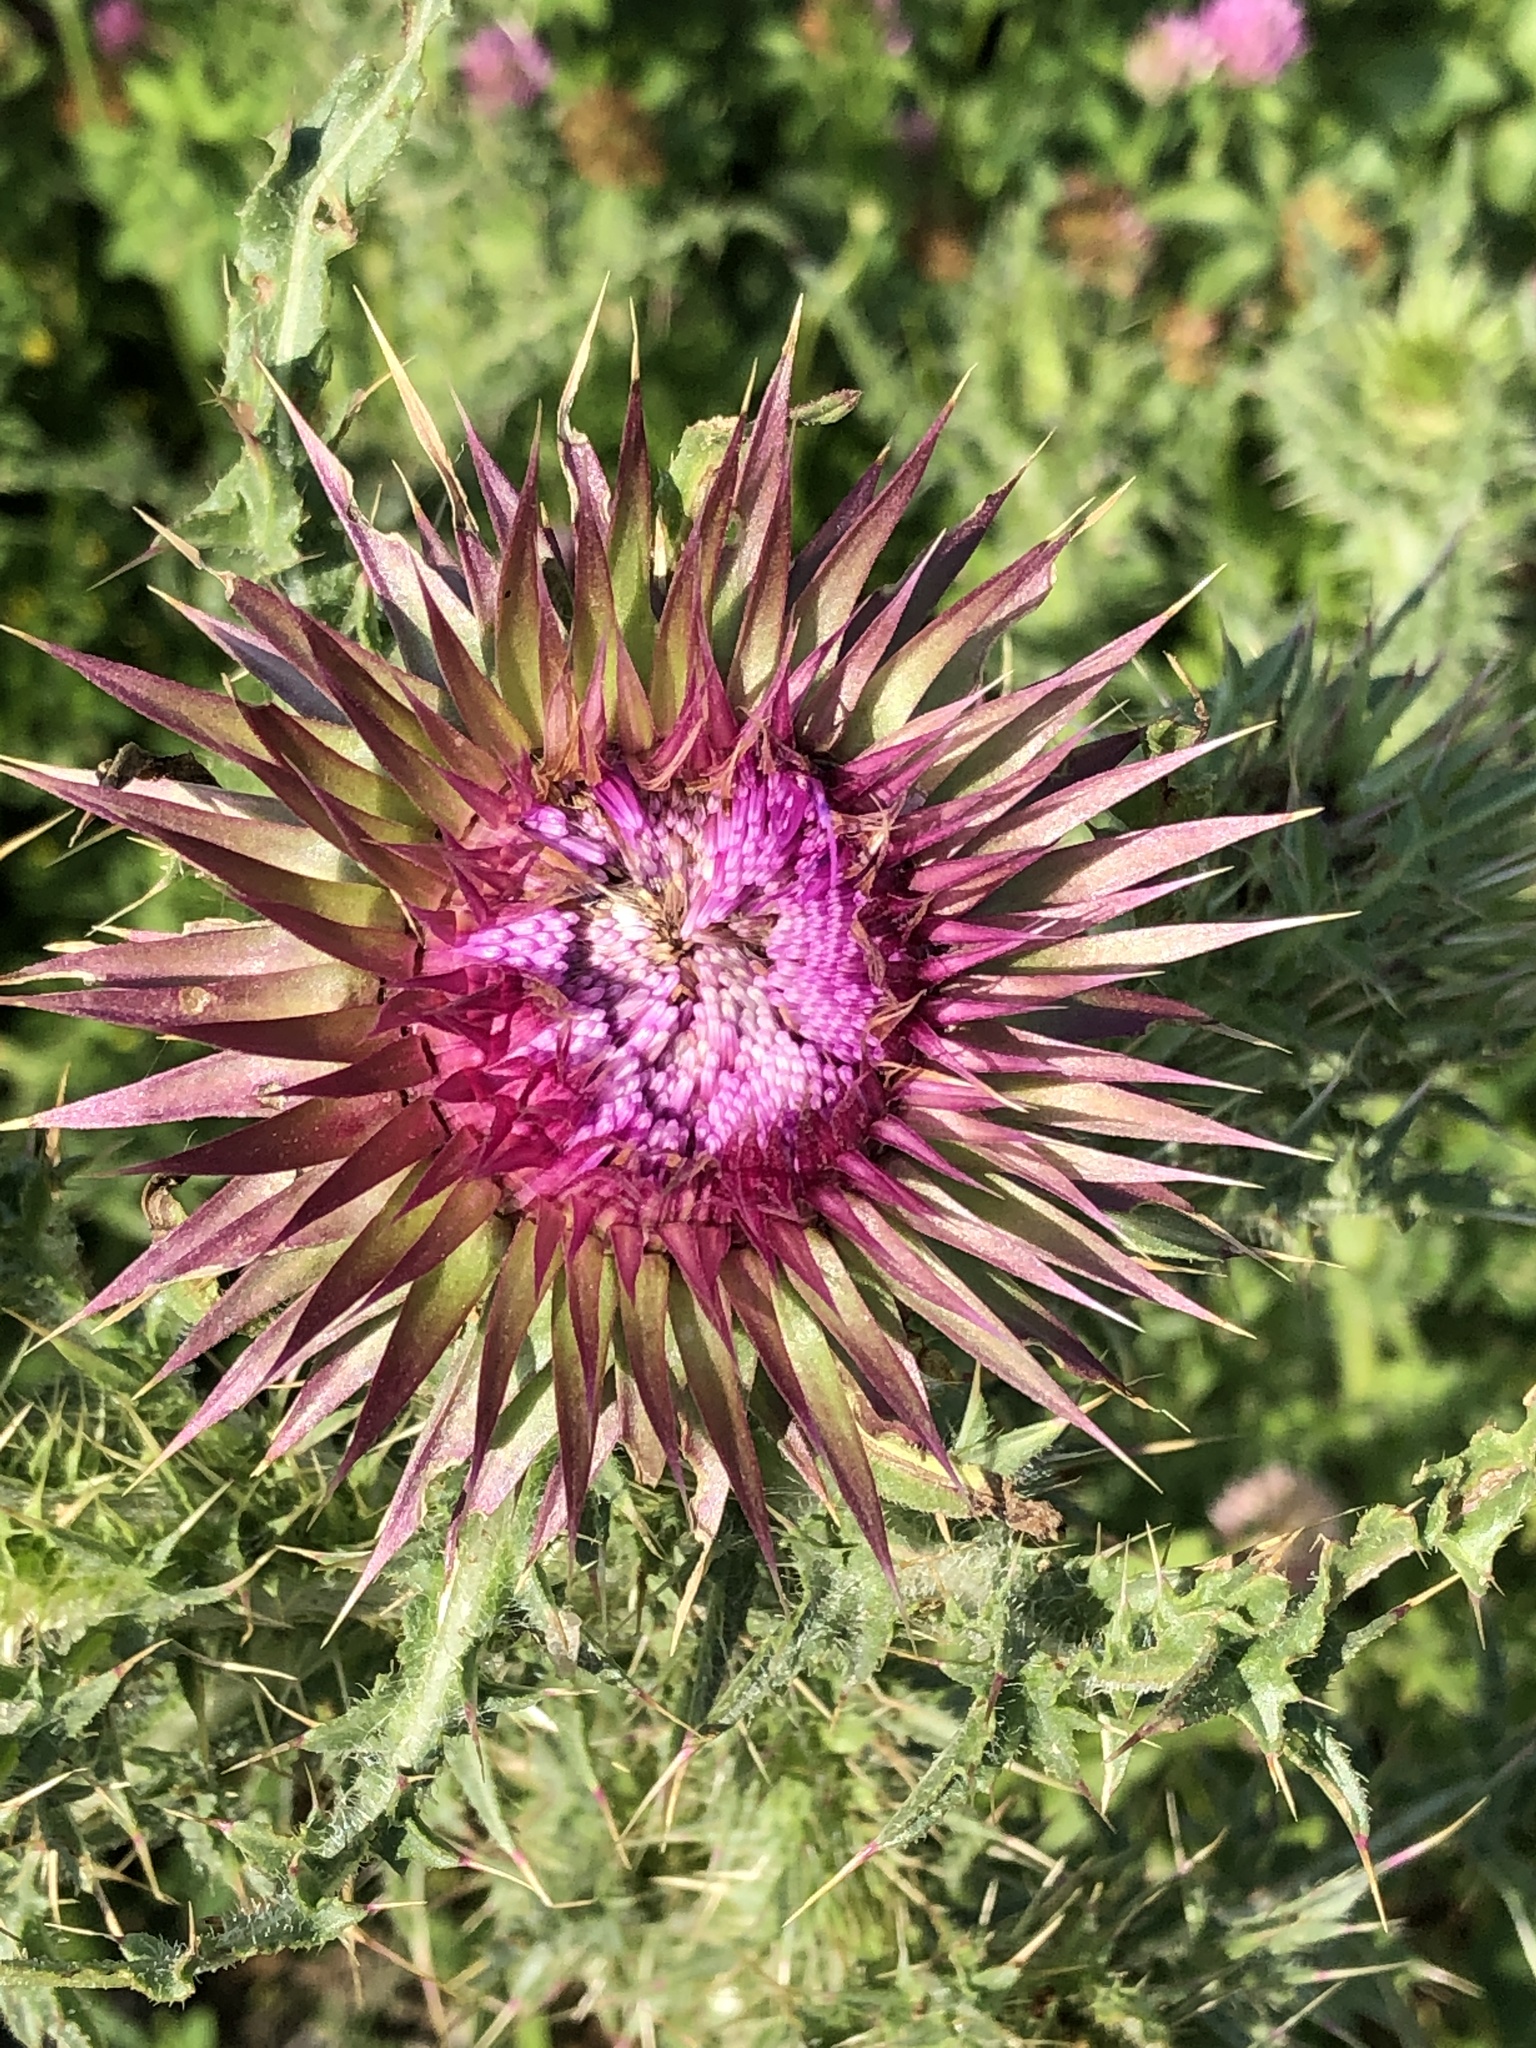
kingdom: Plantae
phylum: Tracheophyta
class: Magnoliopsida
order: Asterales
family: Asteraceae
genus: Carduus
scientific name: Carduus nutans
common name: Musk thistle
